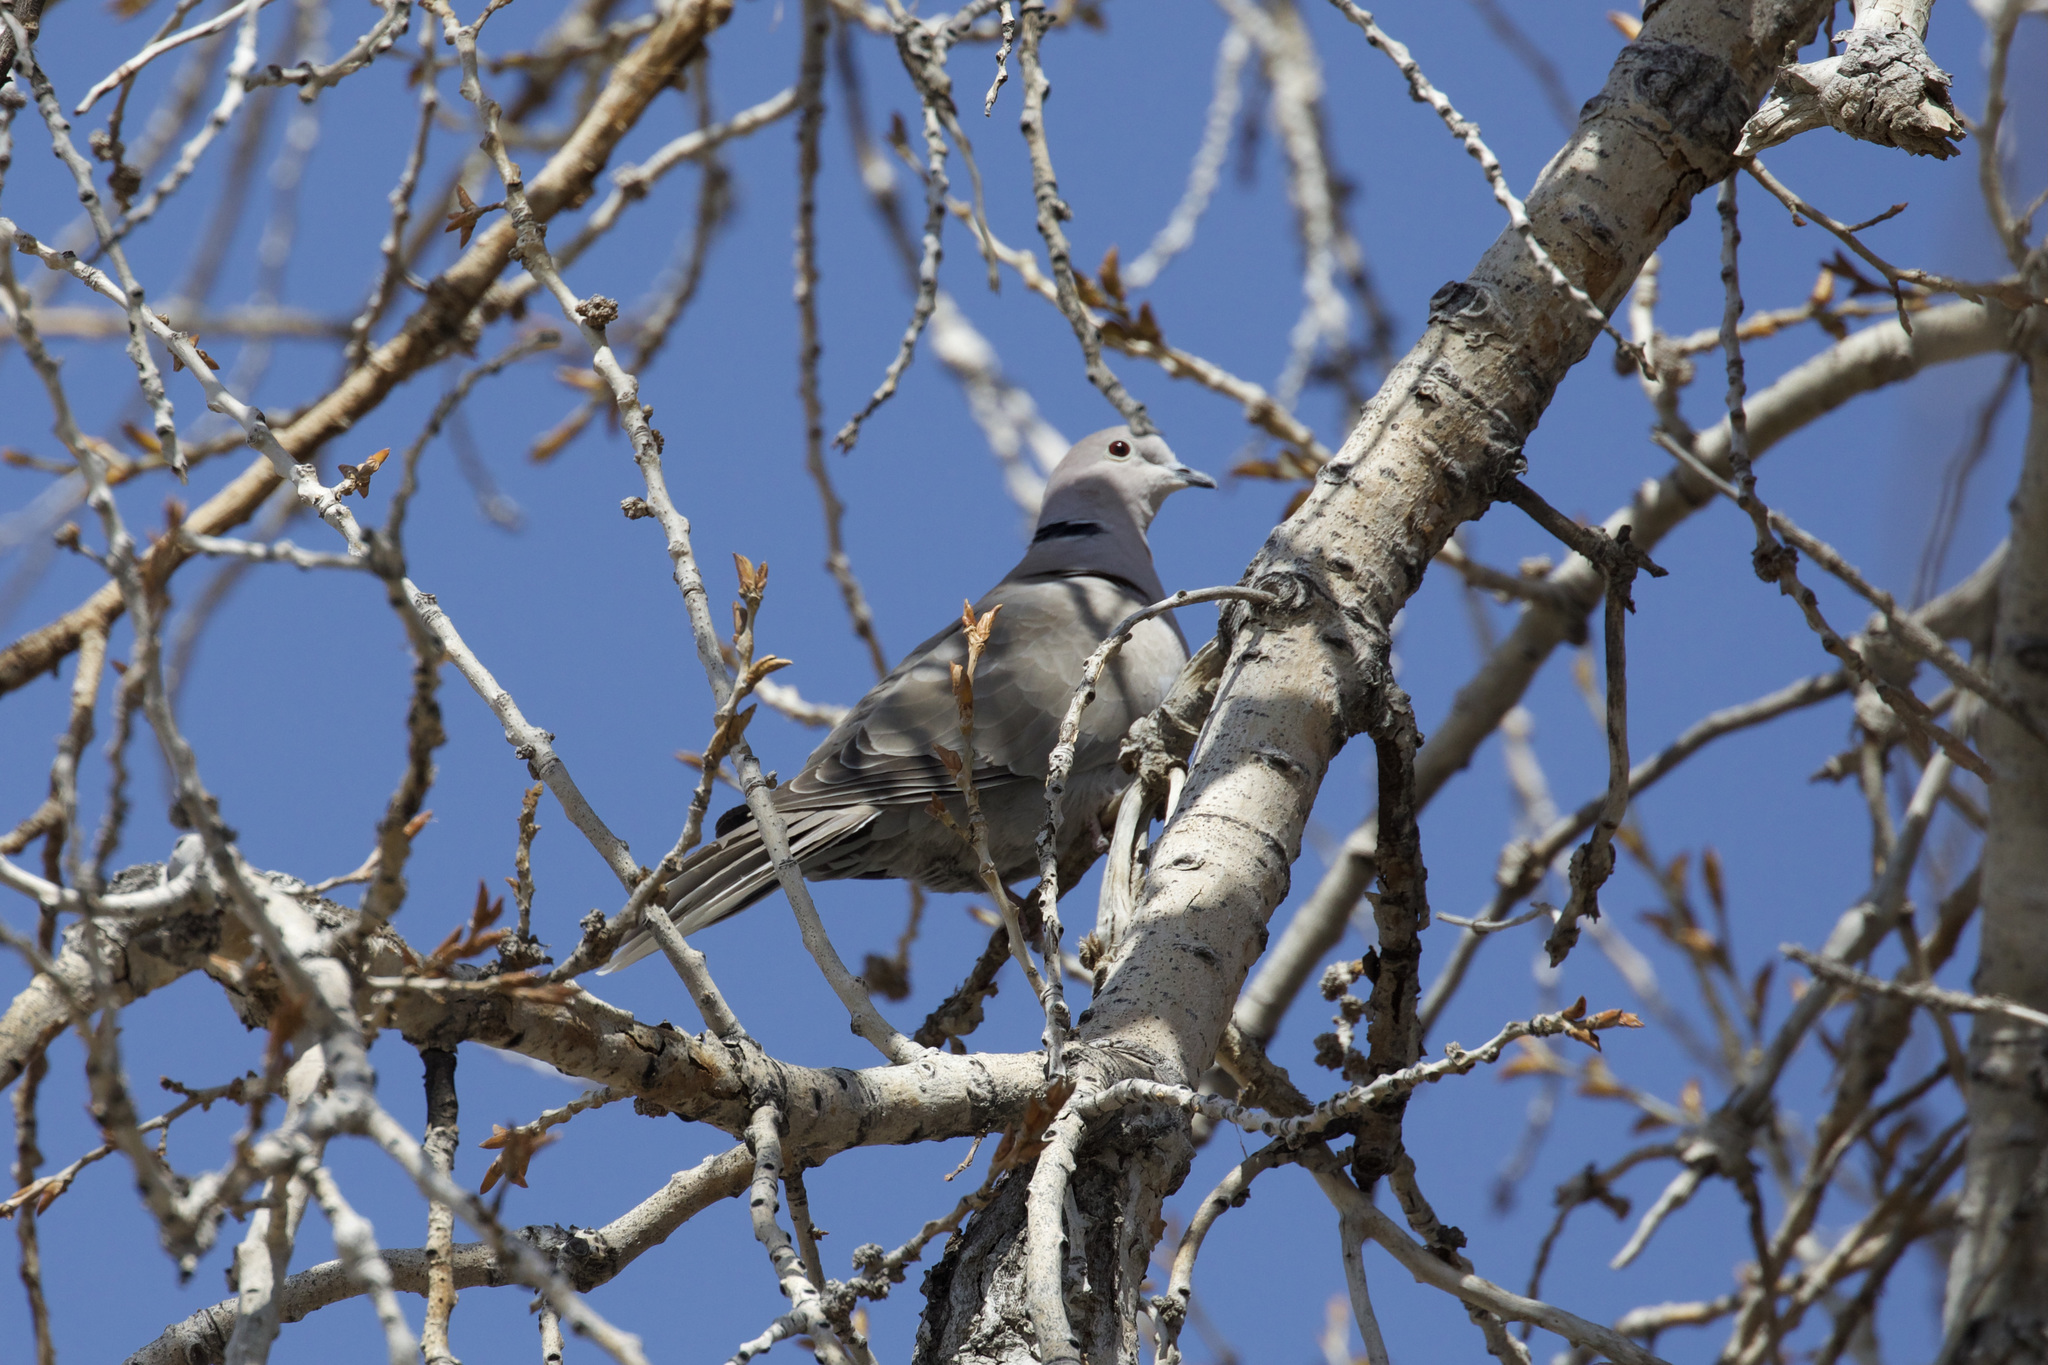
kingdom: Animalia
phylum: Chordata
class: Aves
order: Columbiformes
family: Columbidae
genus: Streptopelia
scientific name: Streptopelia decaocto
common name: Eurasian collared dove
